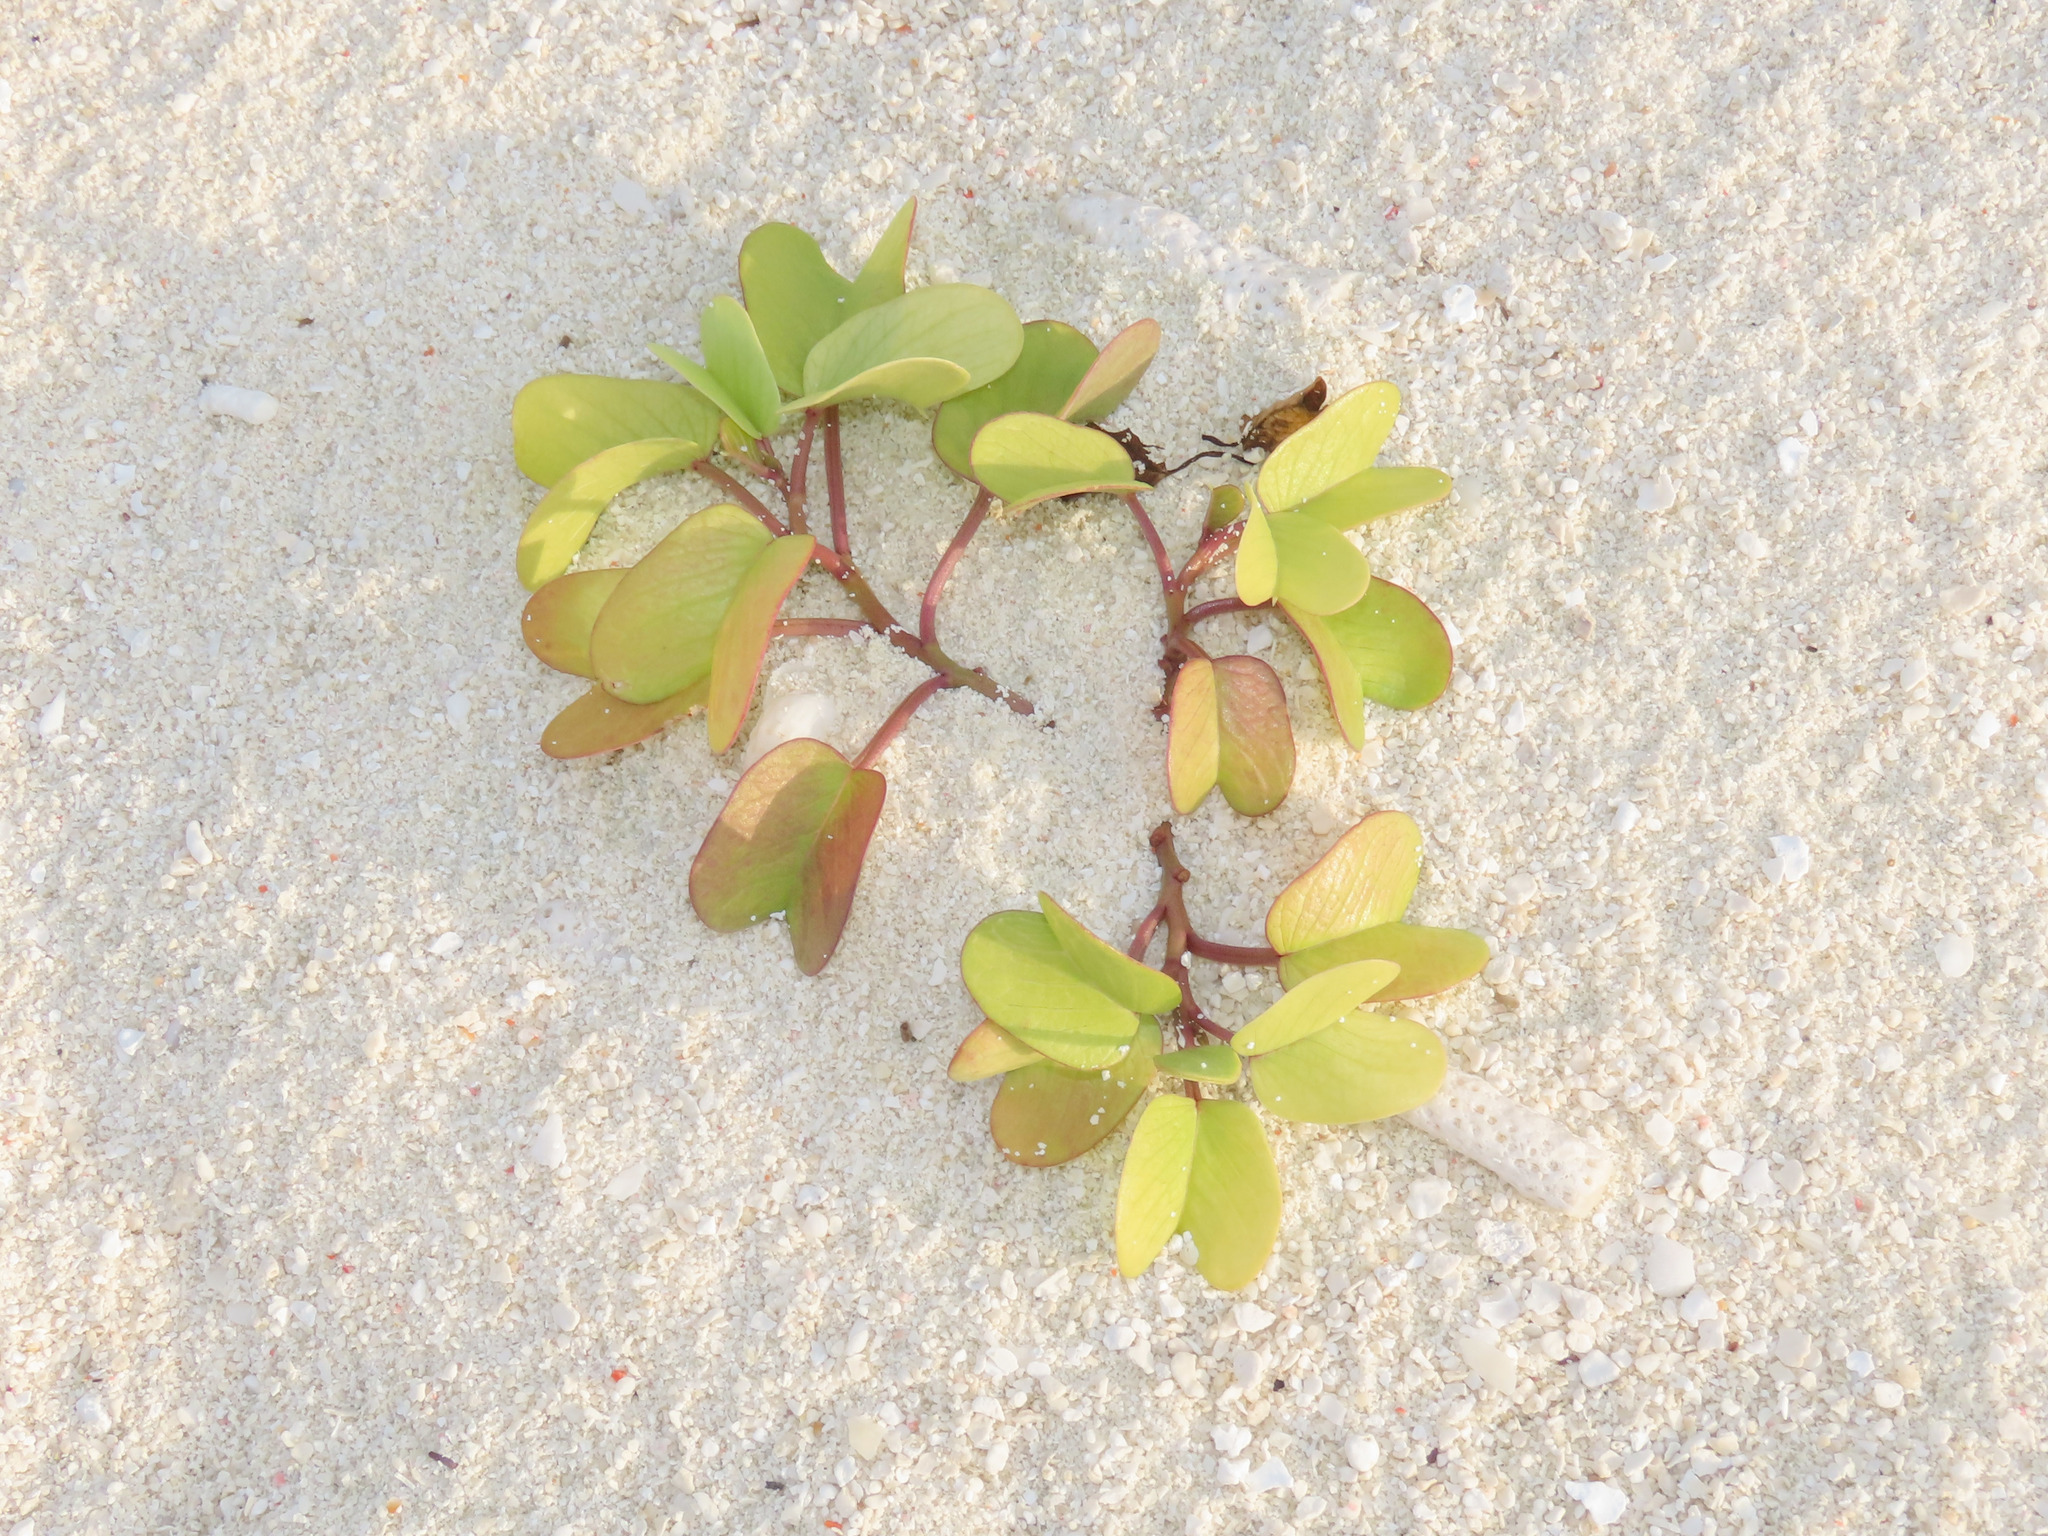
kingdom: Plantae
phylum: Tracheophyta
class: Magnoliopsida
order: Solanales
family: Convolvulaceae
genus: Ipomoea
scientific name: Ipomoea pes-caprae
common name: Beach morning glory
